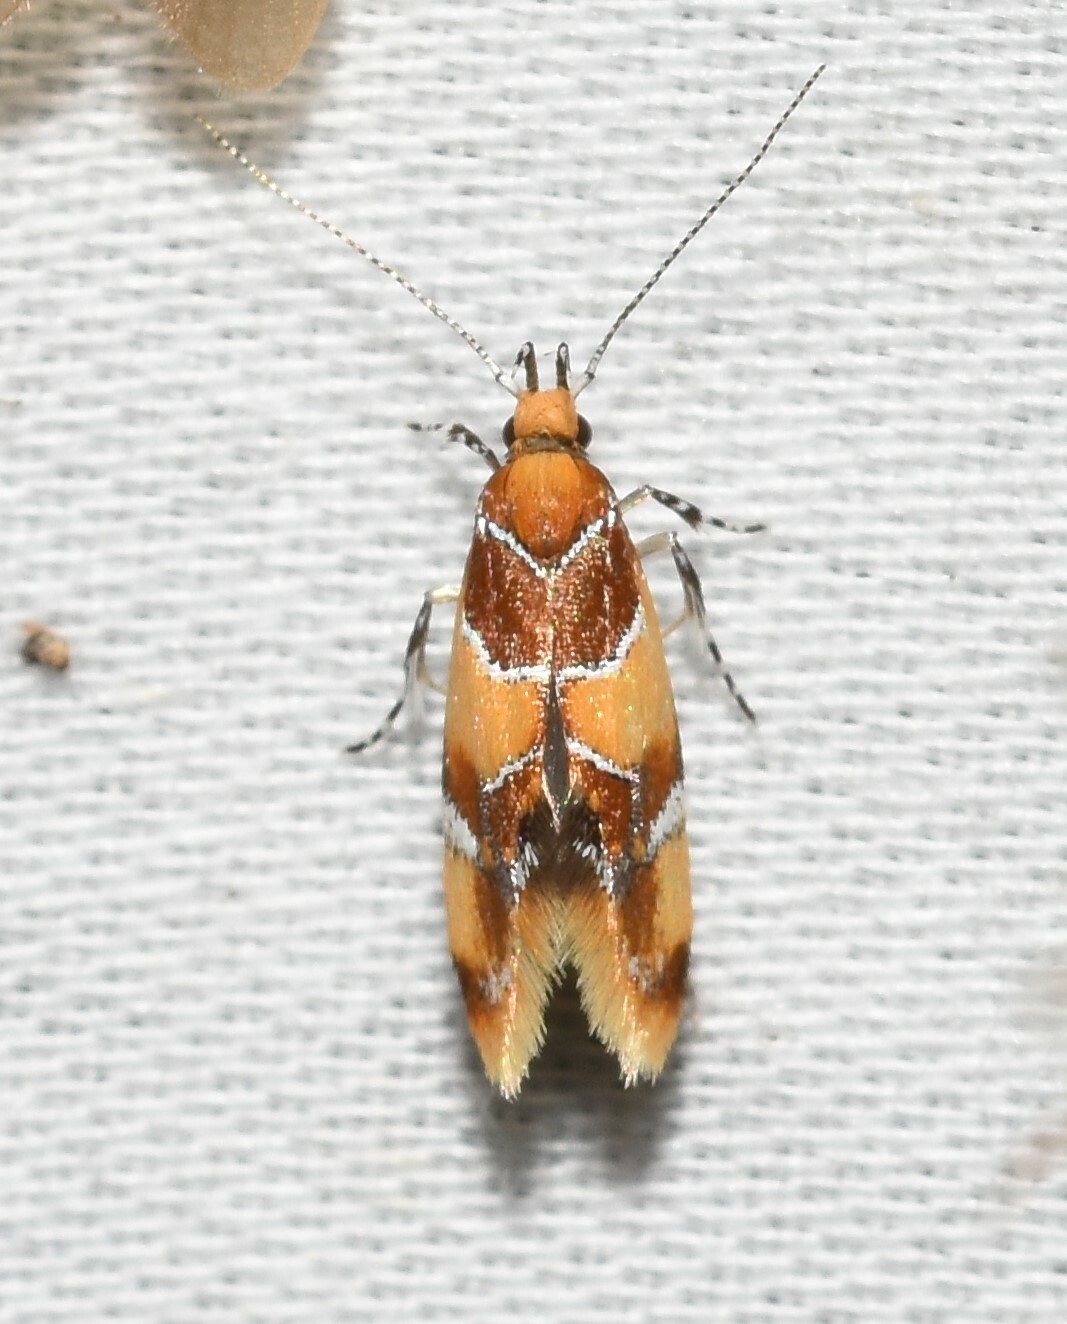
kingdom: Animalia
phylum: Arthropoda
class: Insecta
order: Lepidoptera
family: Oecophoridae
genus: Callima
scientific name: Callima argenticinctella
